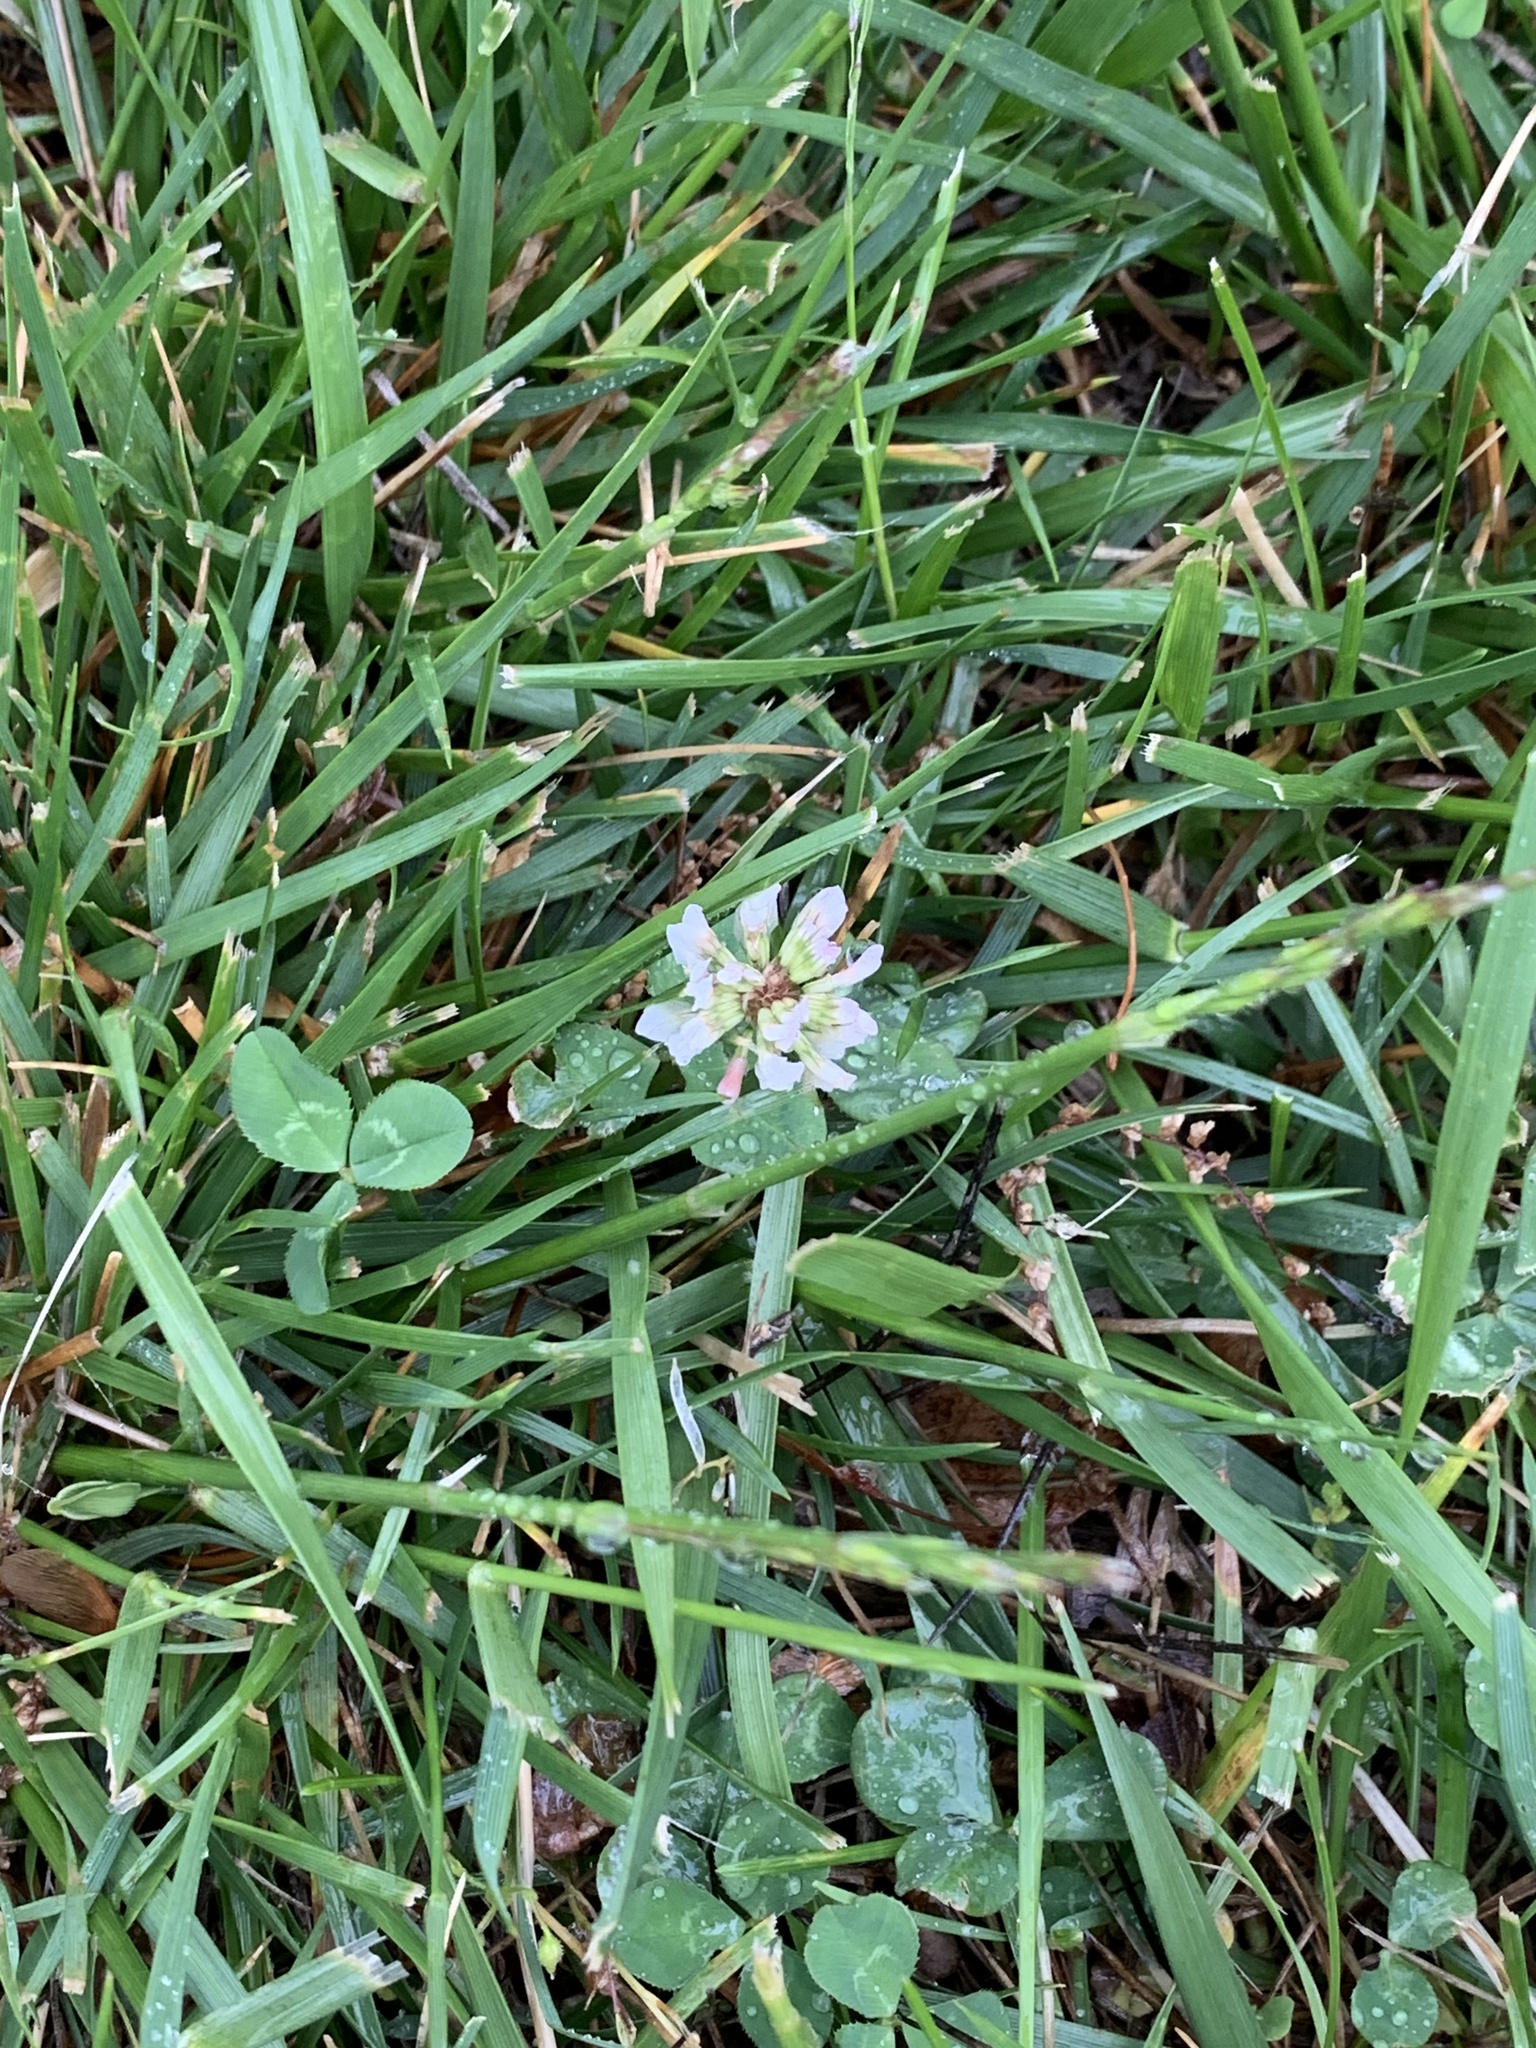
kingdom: Plantae
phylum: Tracheophyta
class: Magnoliopsida
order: Fabales
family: Fabaceae
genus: Trifolium
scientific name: Trifolium repens
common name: White clover
